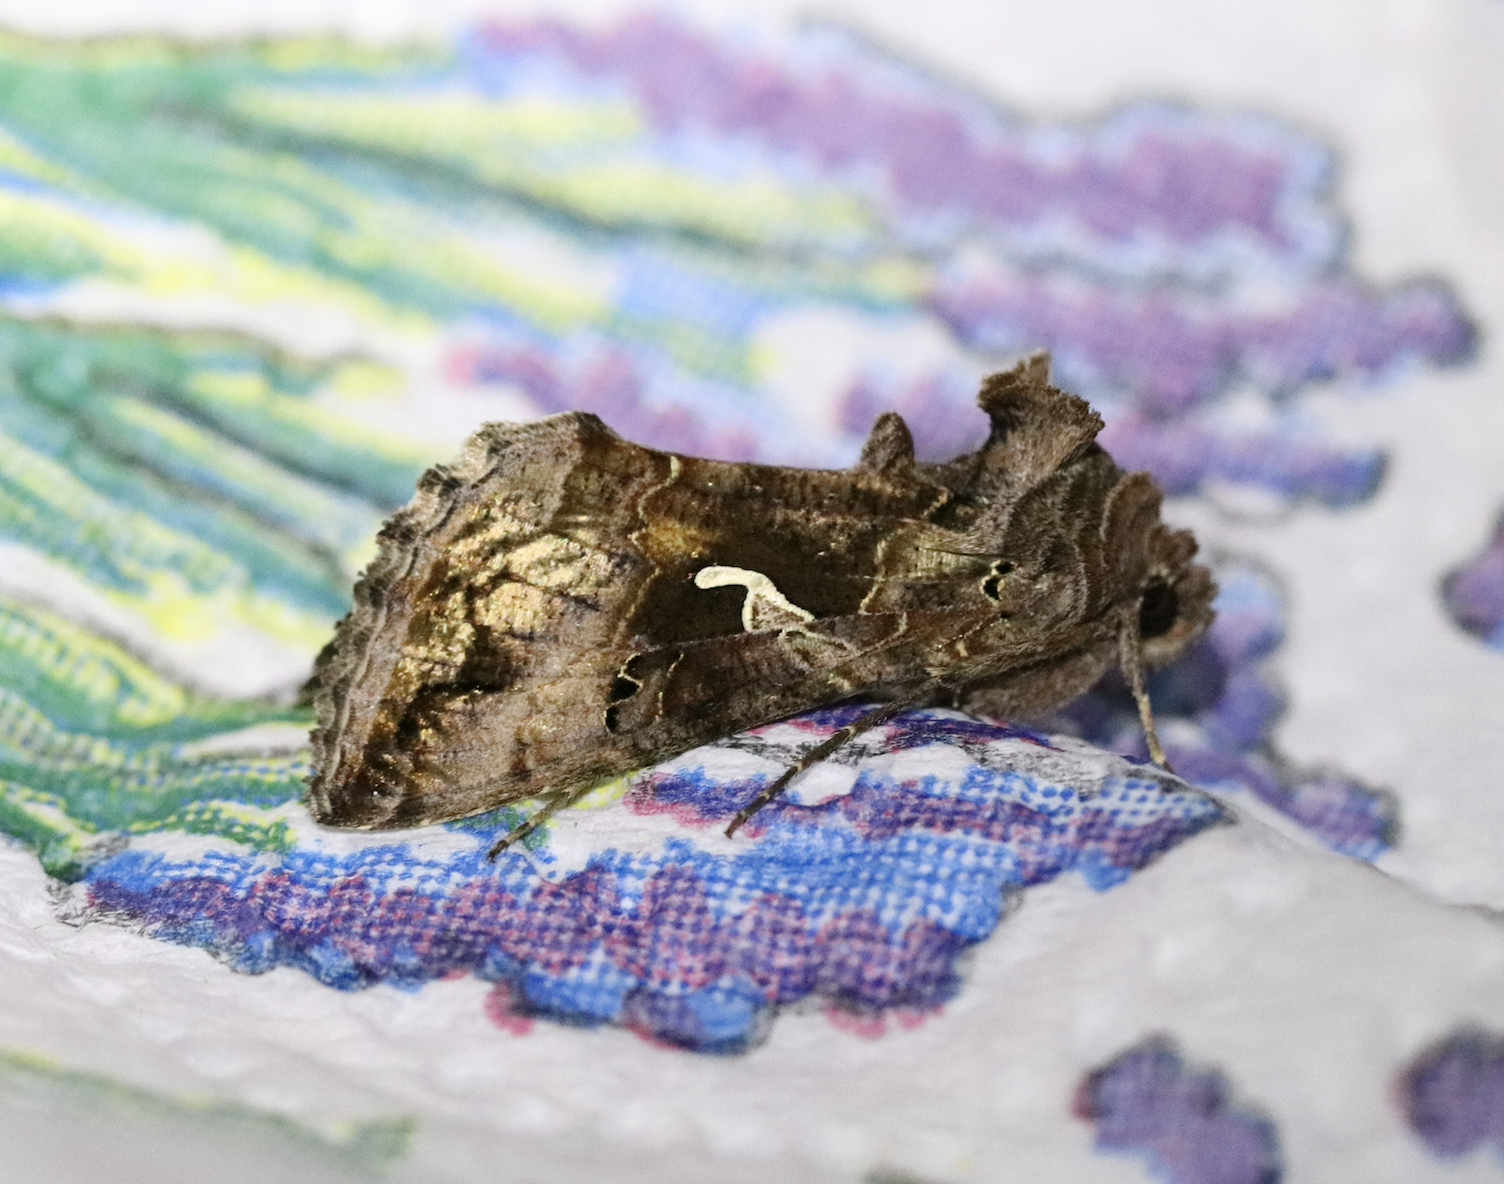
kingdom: Animalia
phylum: Arthropoda
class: Insecta
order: Lepidoptera
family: Noctuidae
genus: Autographa
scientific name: Autographa gamma
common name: Silver y
